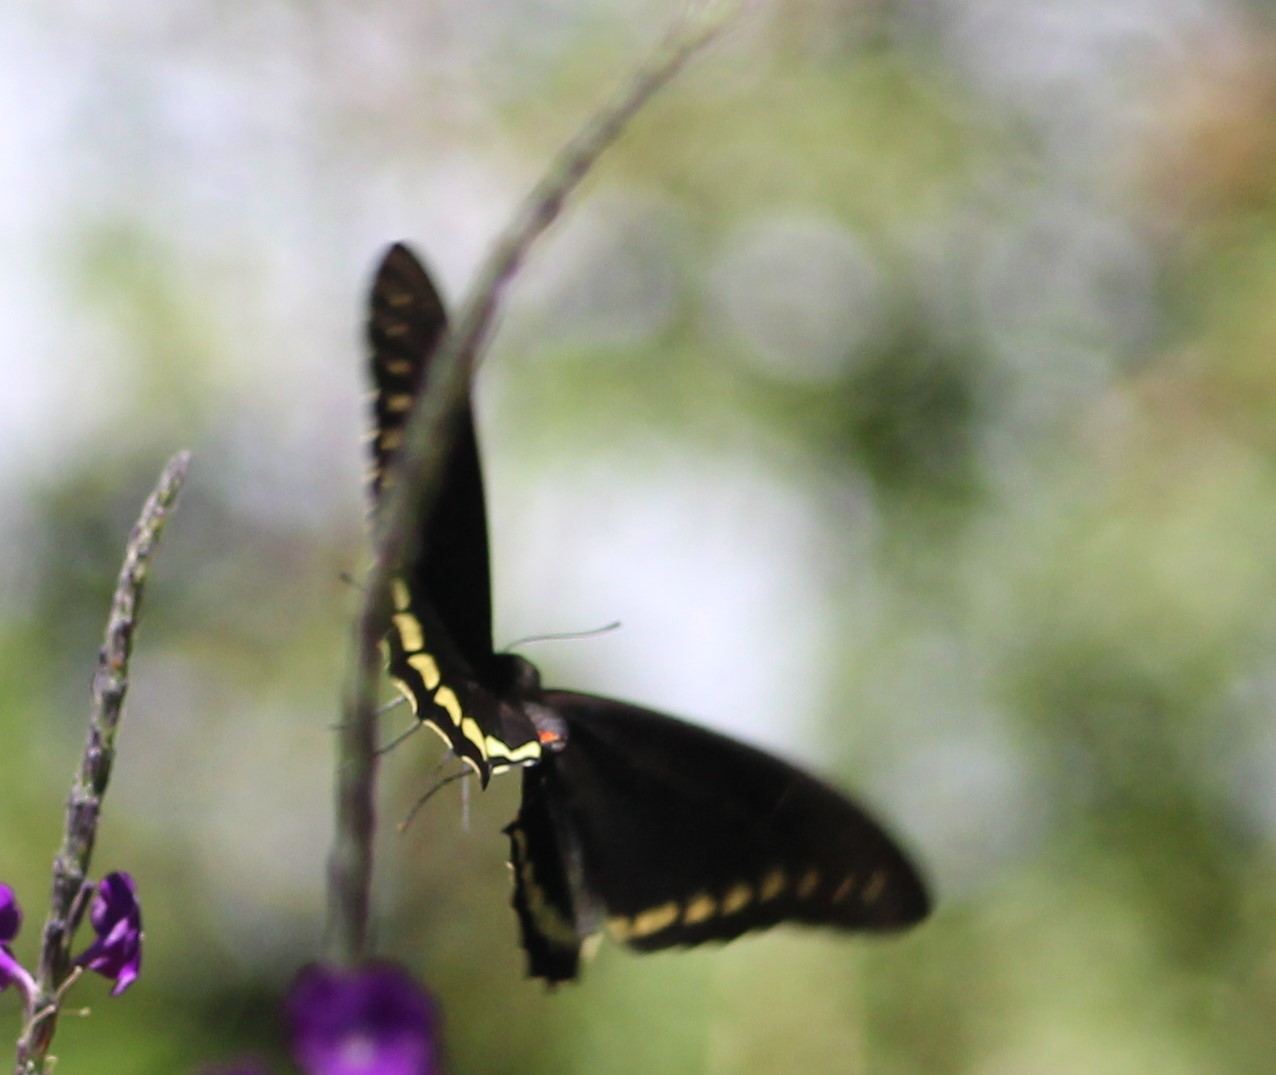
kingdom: Animalia
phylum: Arthropoda
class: Insecta
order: Lepidoptera
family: Papilionidae
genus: Battus
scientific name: Battus polydamas
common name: Polydamas swallowtail
